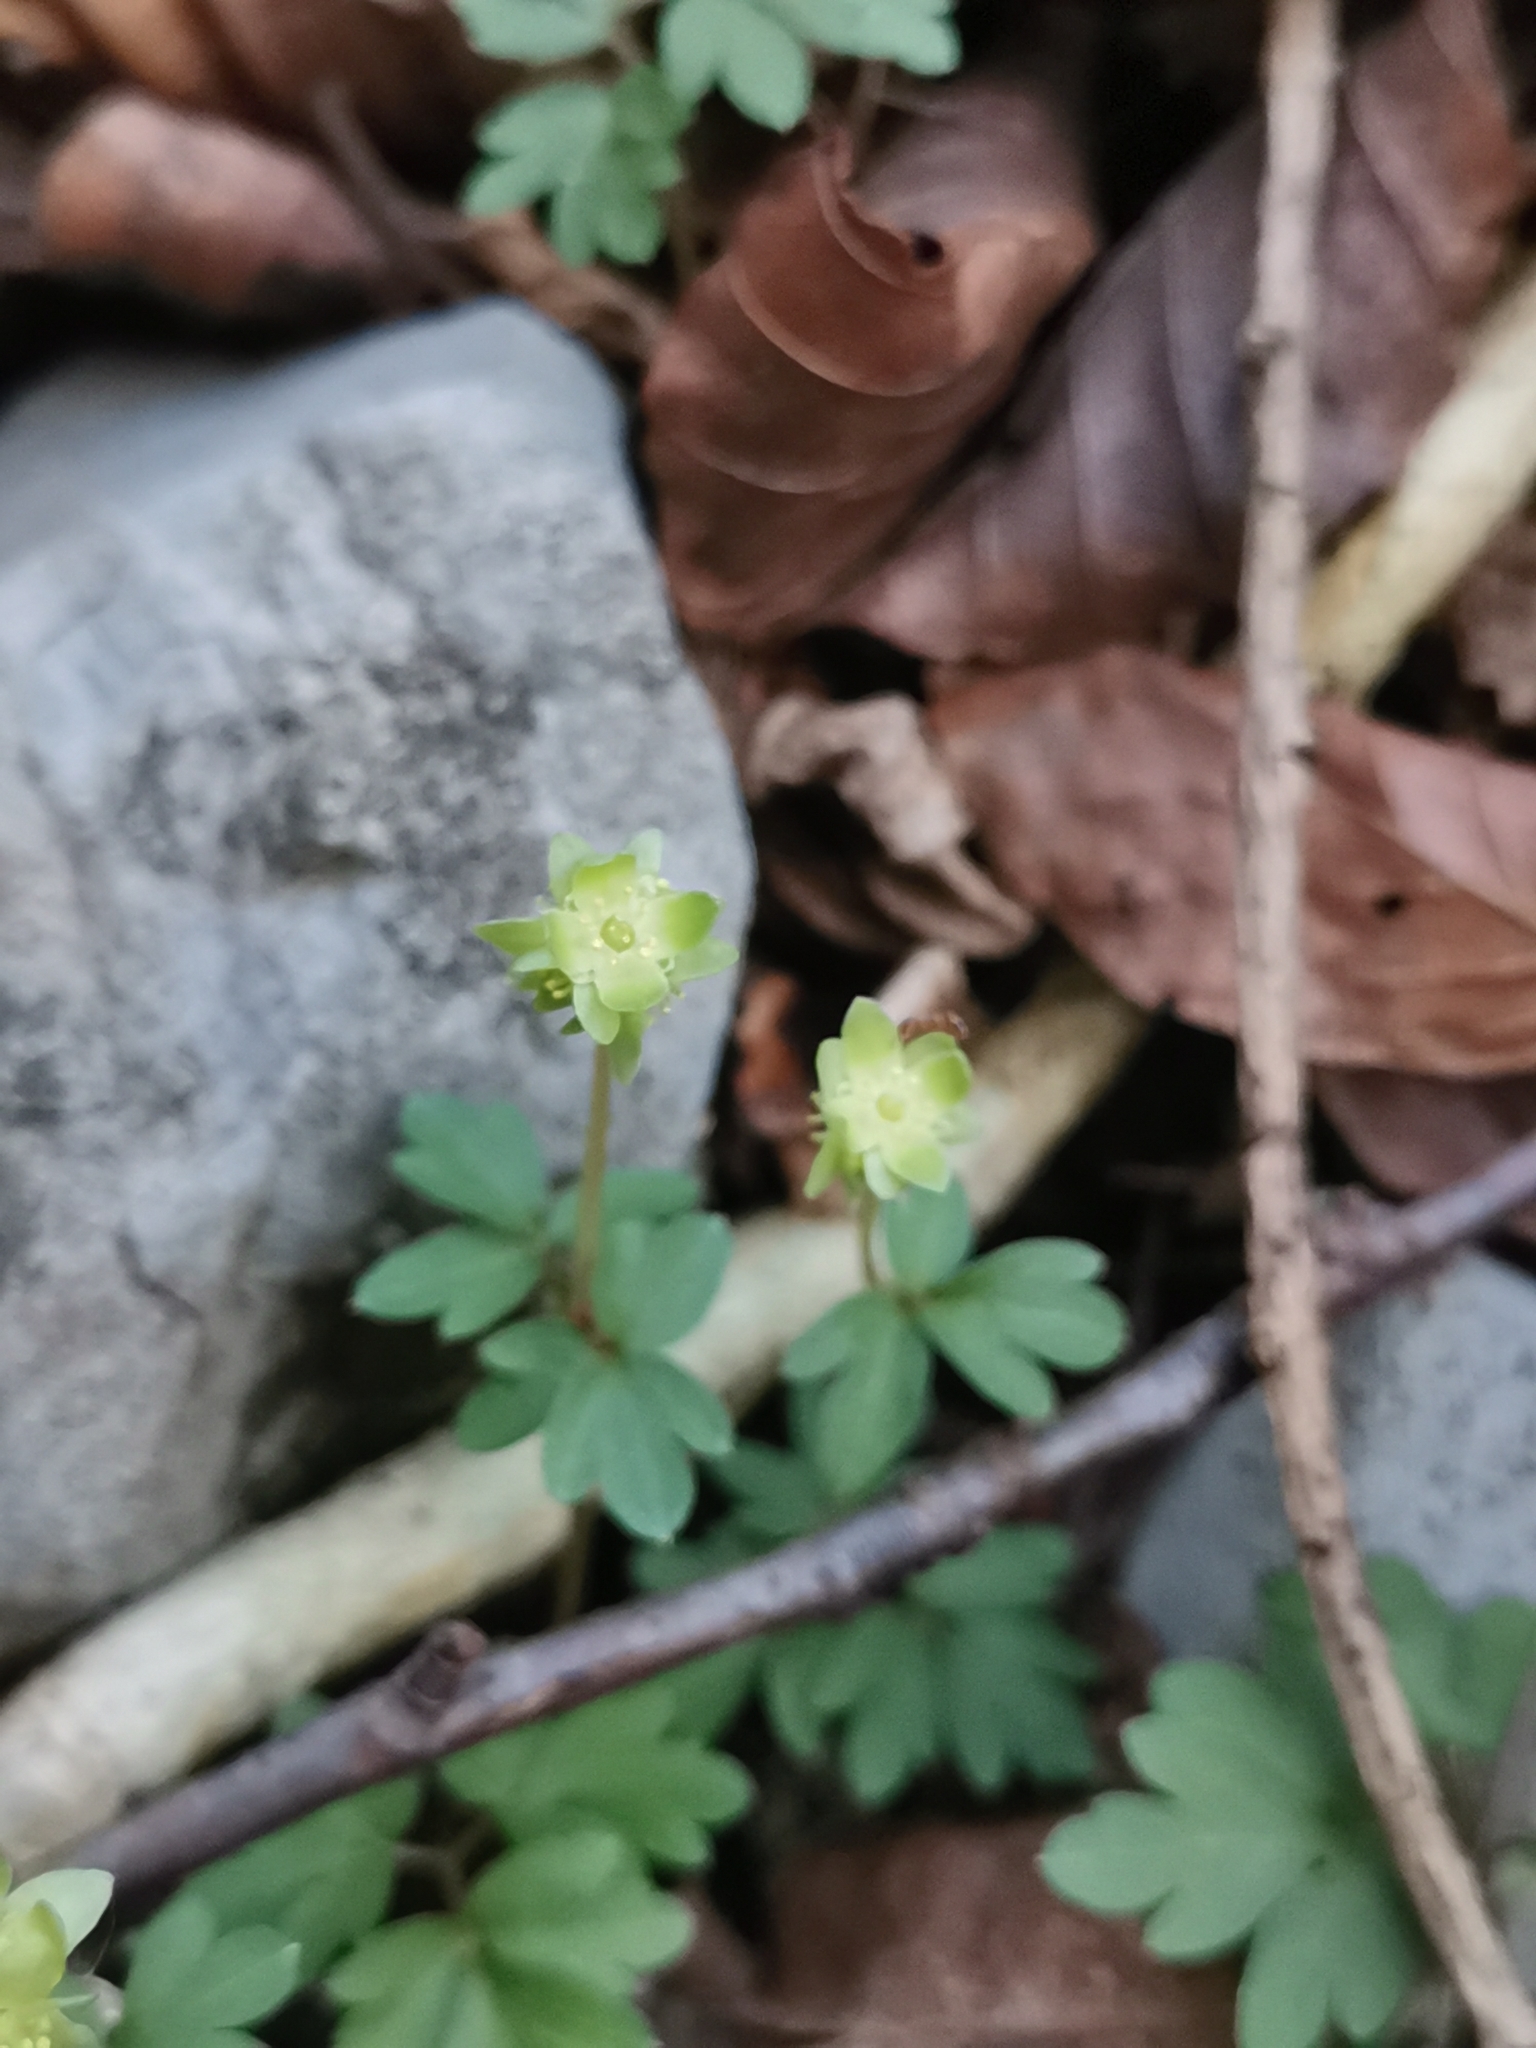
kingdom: Plantae
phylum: Tracheophyta
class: Magnoliopsida
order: Dipsacales
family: Viburnaceae
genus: Adoxa
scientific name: Adoxa moschatellina
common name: Moschatel
